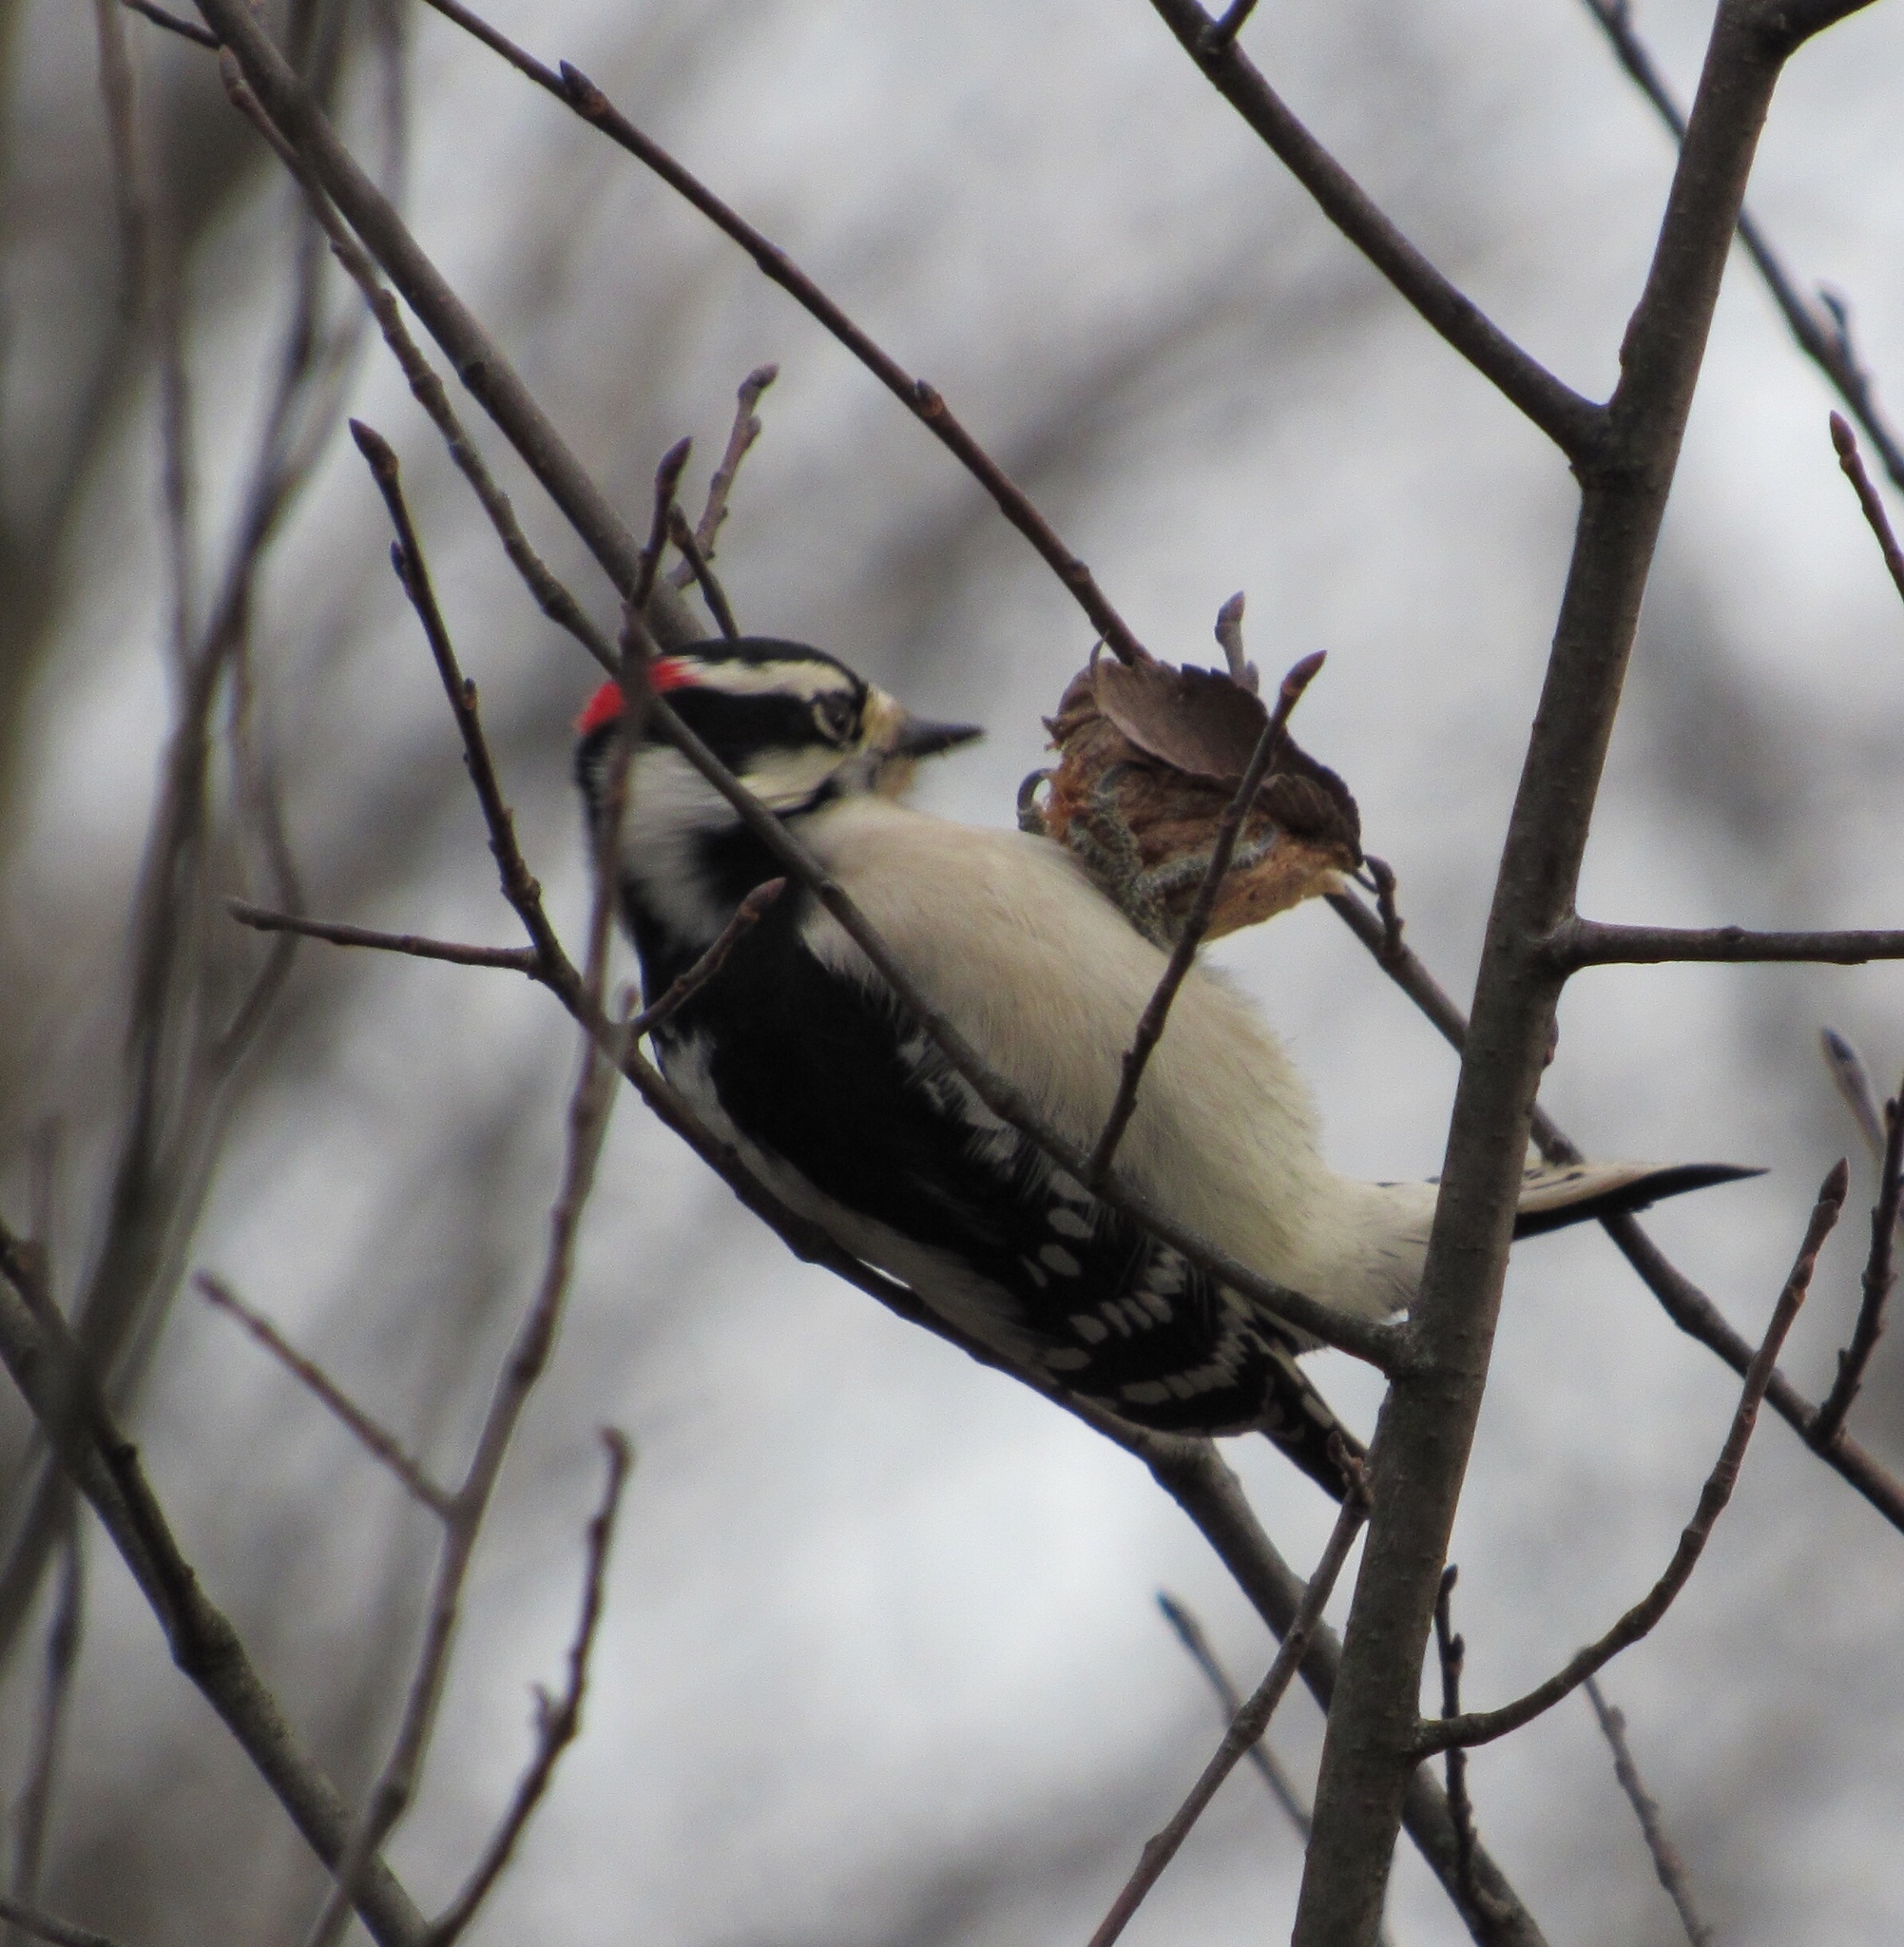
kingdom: Animalia
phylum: Chordata
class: Aves
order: Piciformes
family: Picidae
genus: Dryobates
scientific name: Dryobates pubescens
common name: Downy woodpecker
